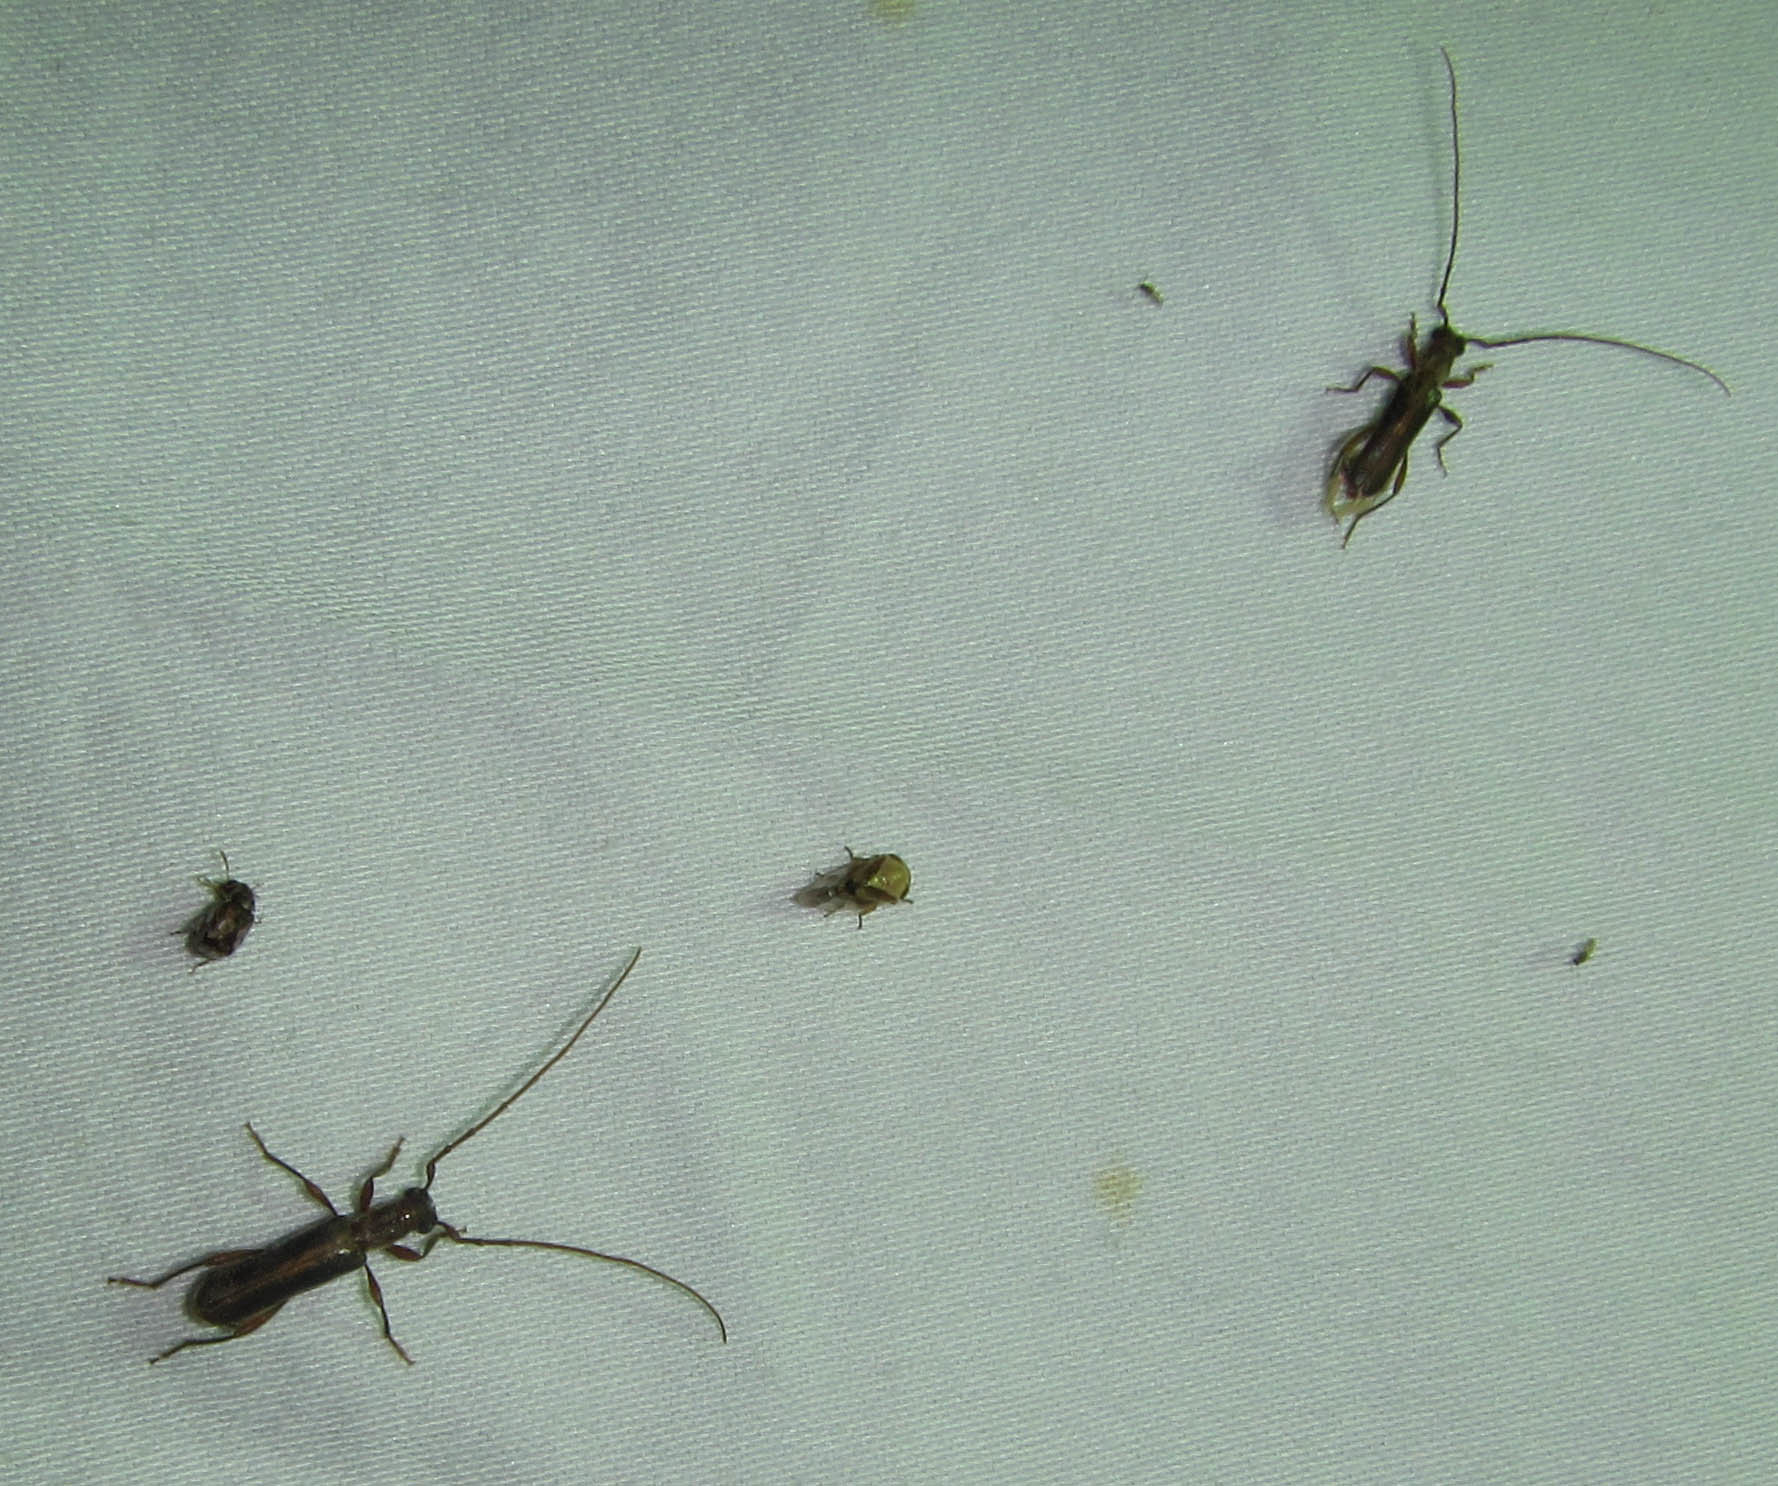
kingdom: Animalia
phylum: Arthropoda
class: Insecta
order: Coleoptera
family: Cerambycidae
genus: Ossibia
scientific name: Ossibia fuscata
